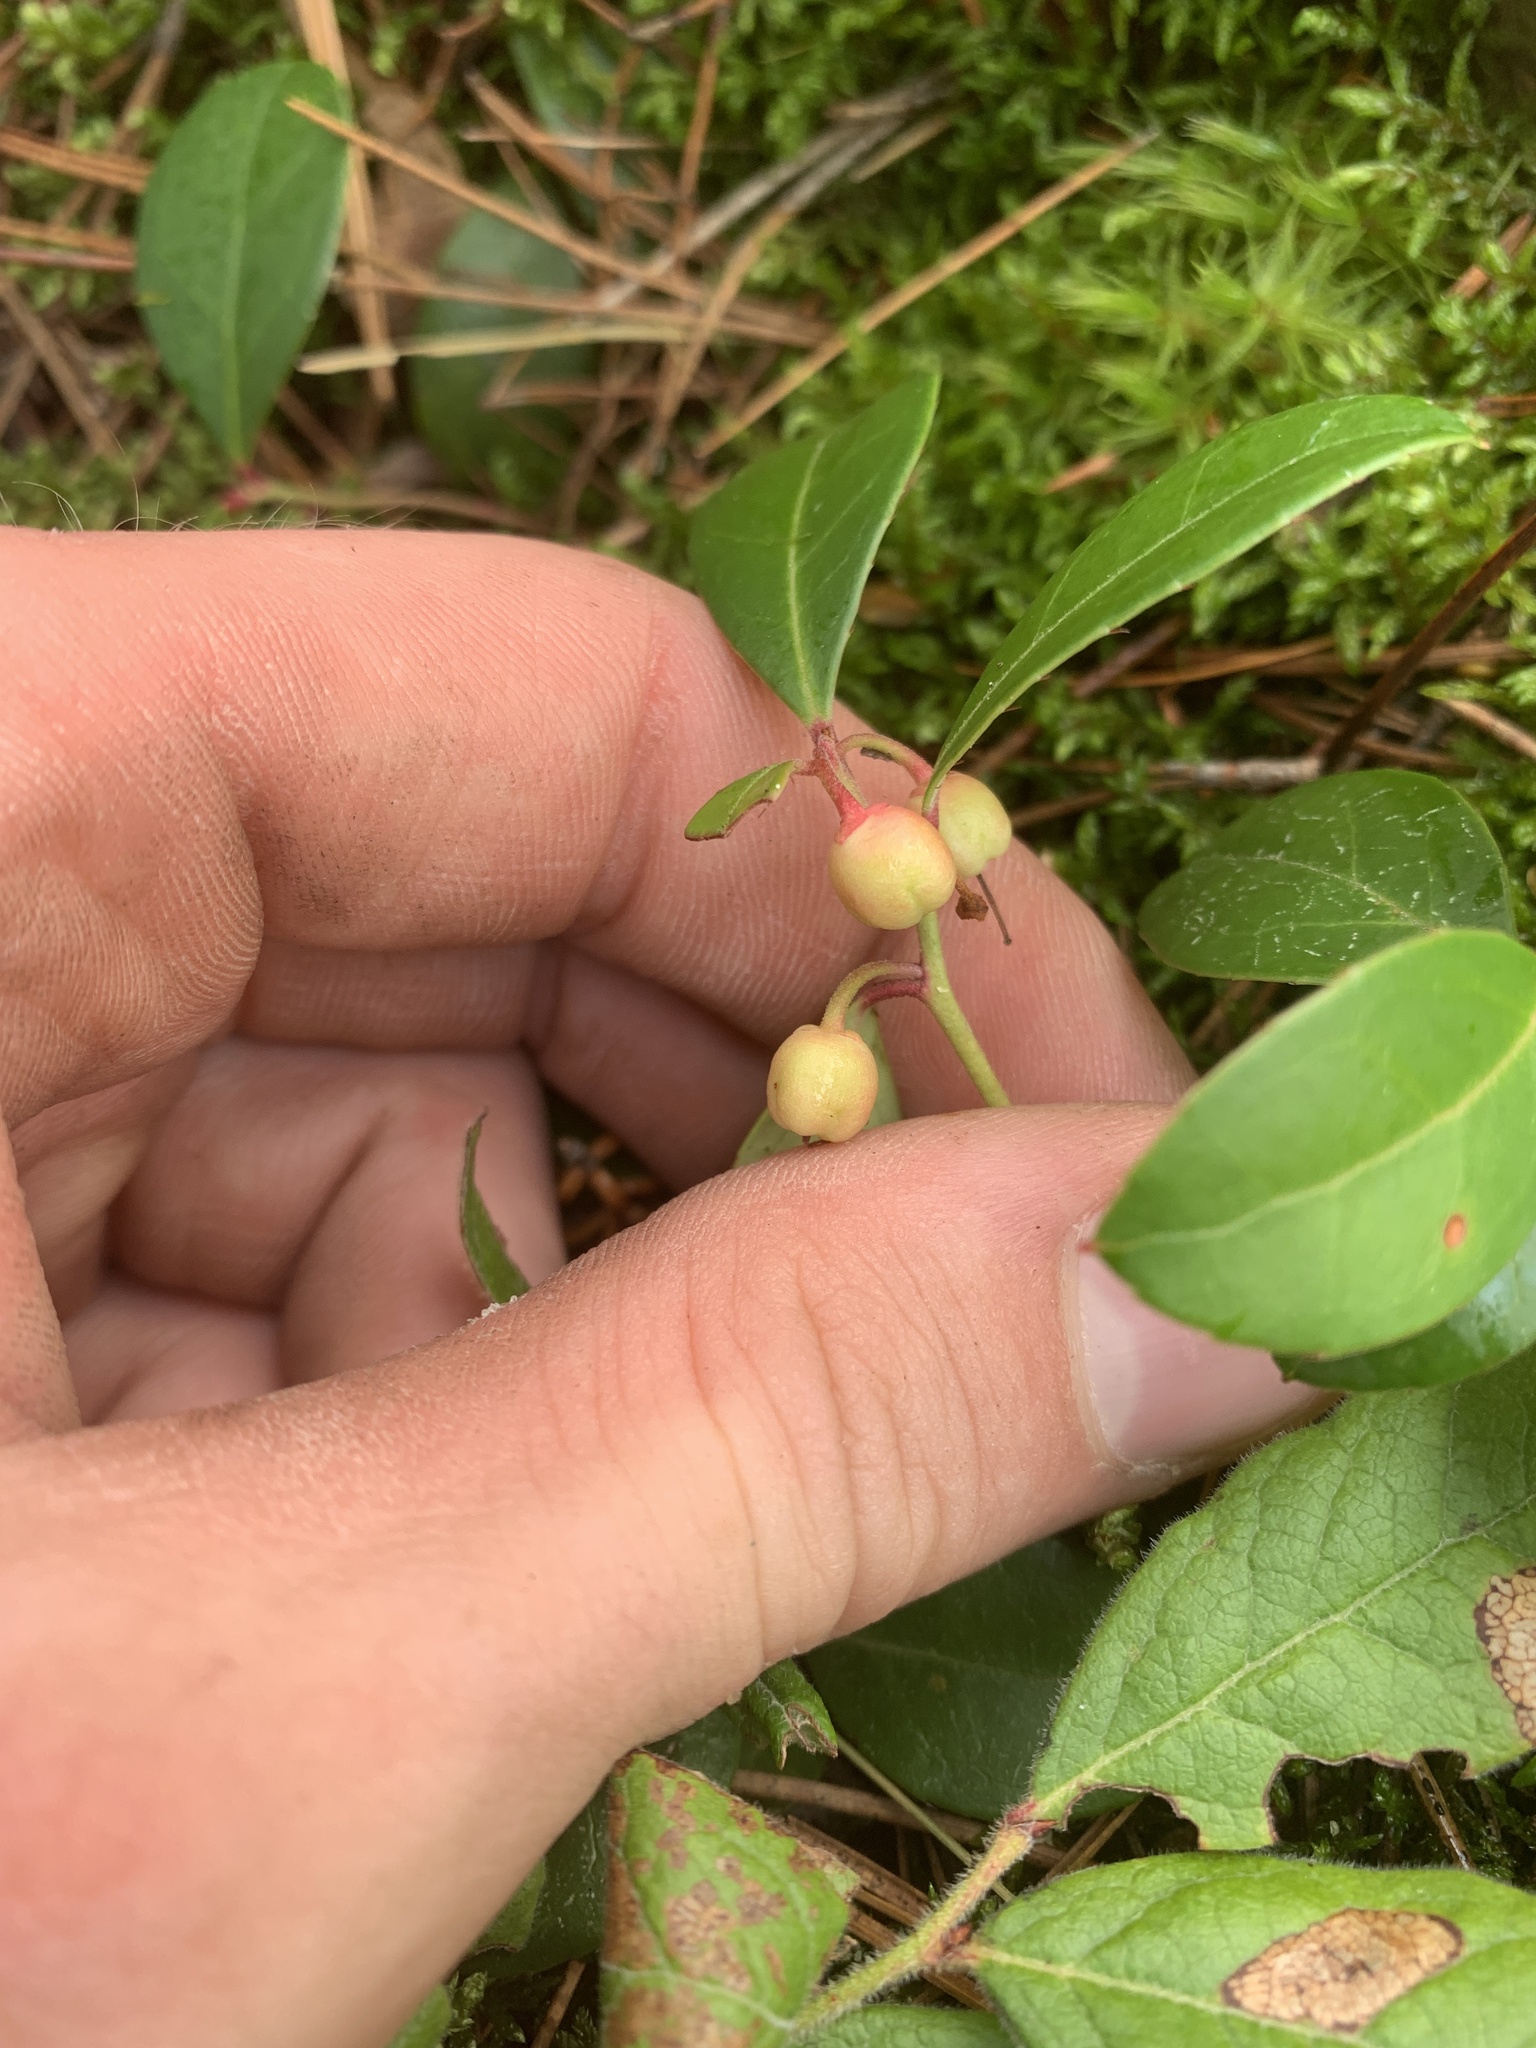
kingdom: Plantae
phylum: Tracheophyta
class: Magnoliopsida
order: Ericales
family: Ericaceae
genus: Gaultheria
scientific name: Gaultheria procumbens
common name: Checkerberry
